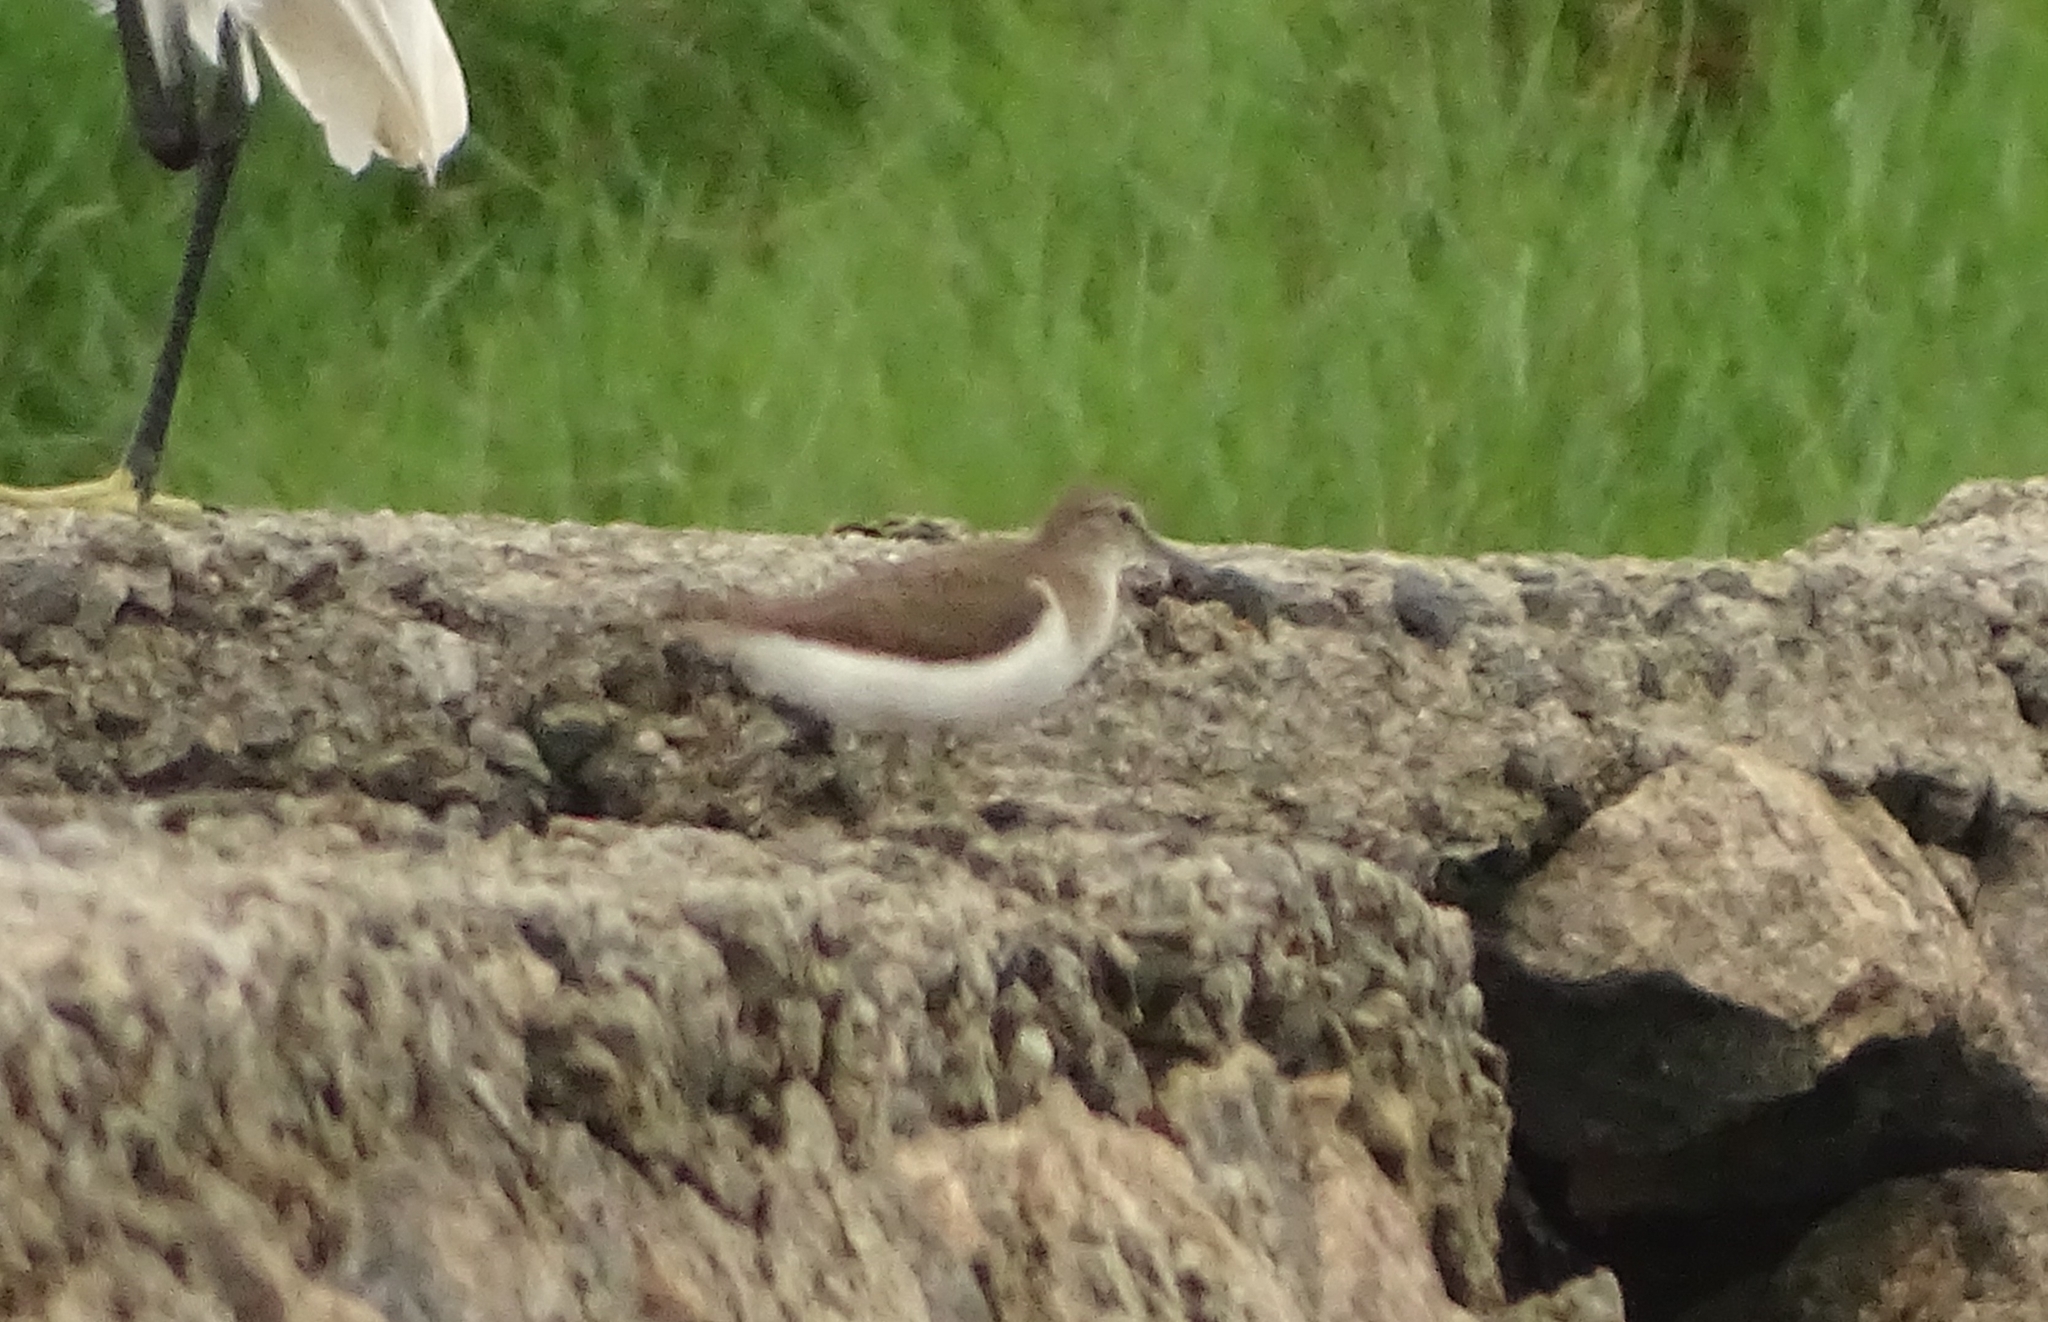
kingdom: Animalia
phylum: Chordata
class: Aves
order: Charadriiformes
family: Scolopacidae
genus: Actitis
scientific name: Actitis hypoleucos
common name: Common sandpiper
